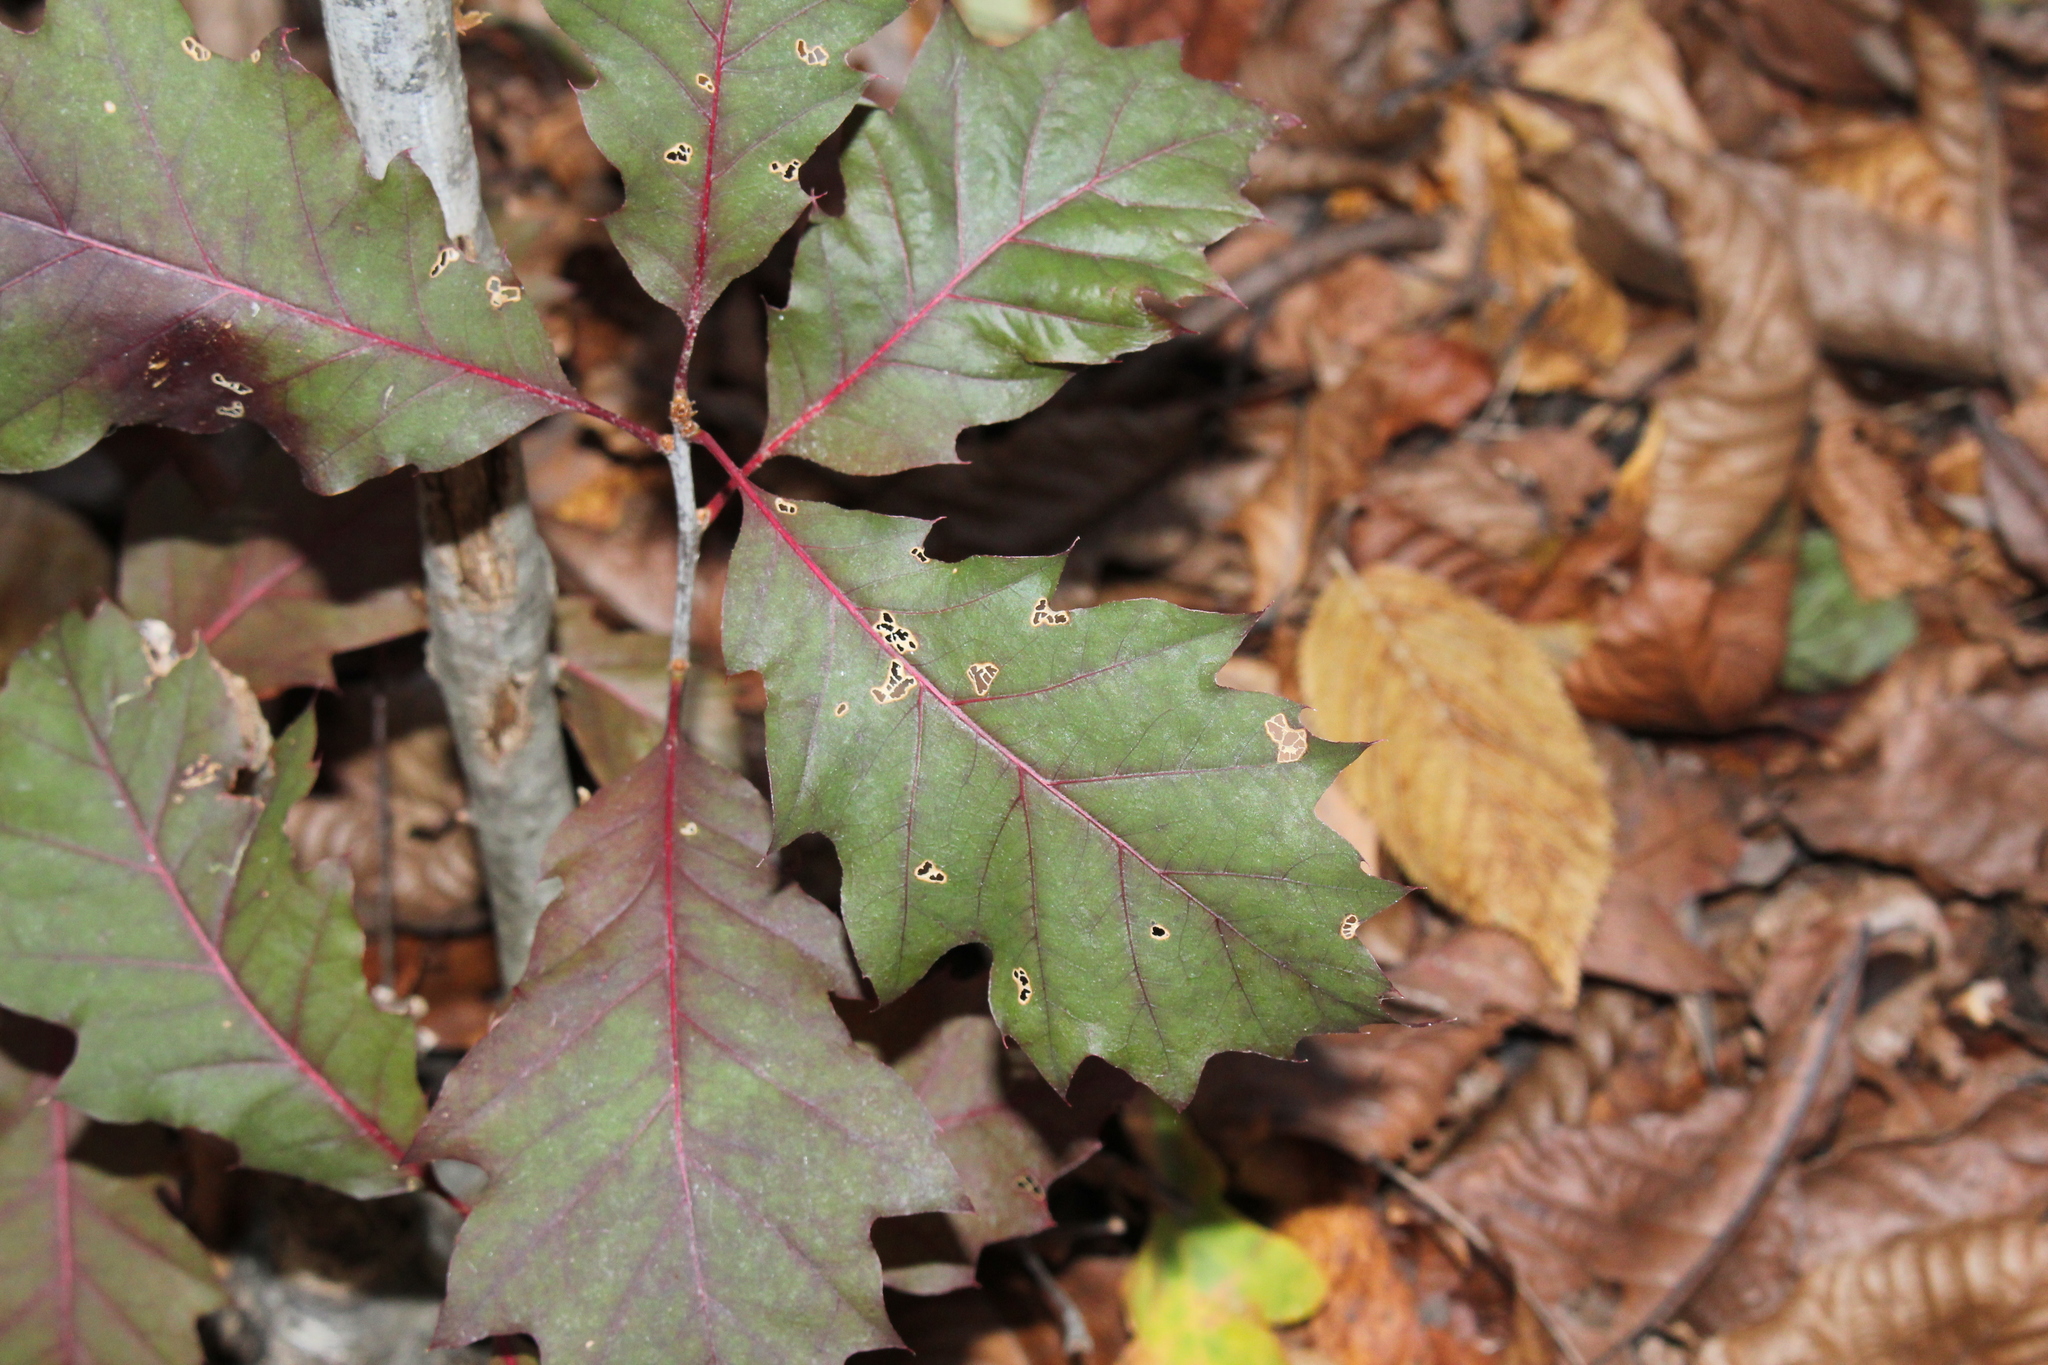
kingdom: Plantae
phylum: Tracheophyta
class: Magnoliopsida
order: Fagales
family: Fagaceae
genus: Quercus
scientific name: Quercus rubra
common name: Red oak
